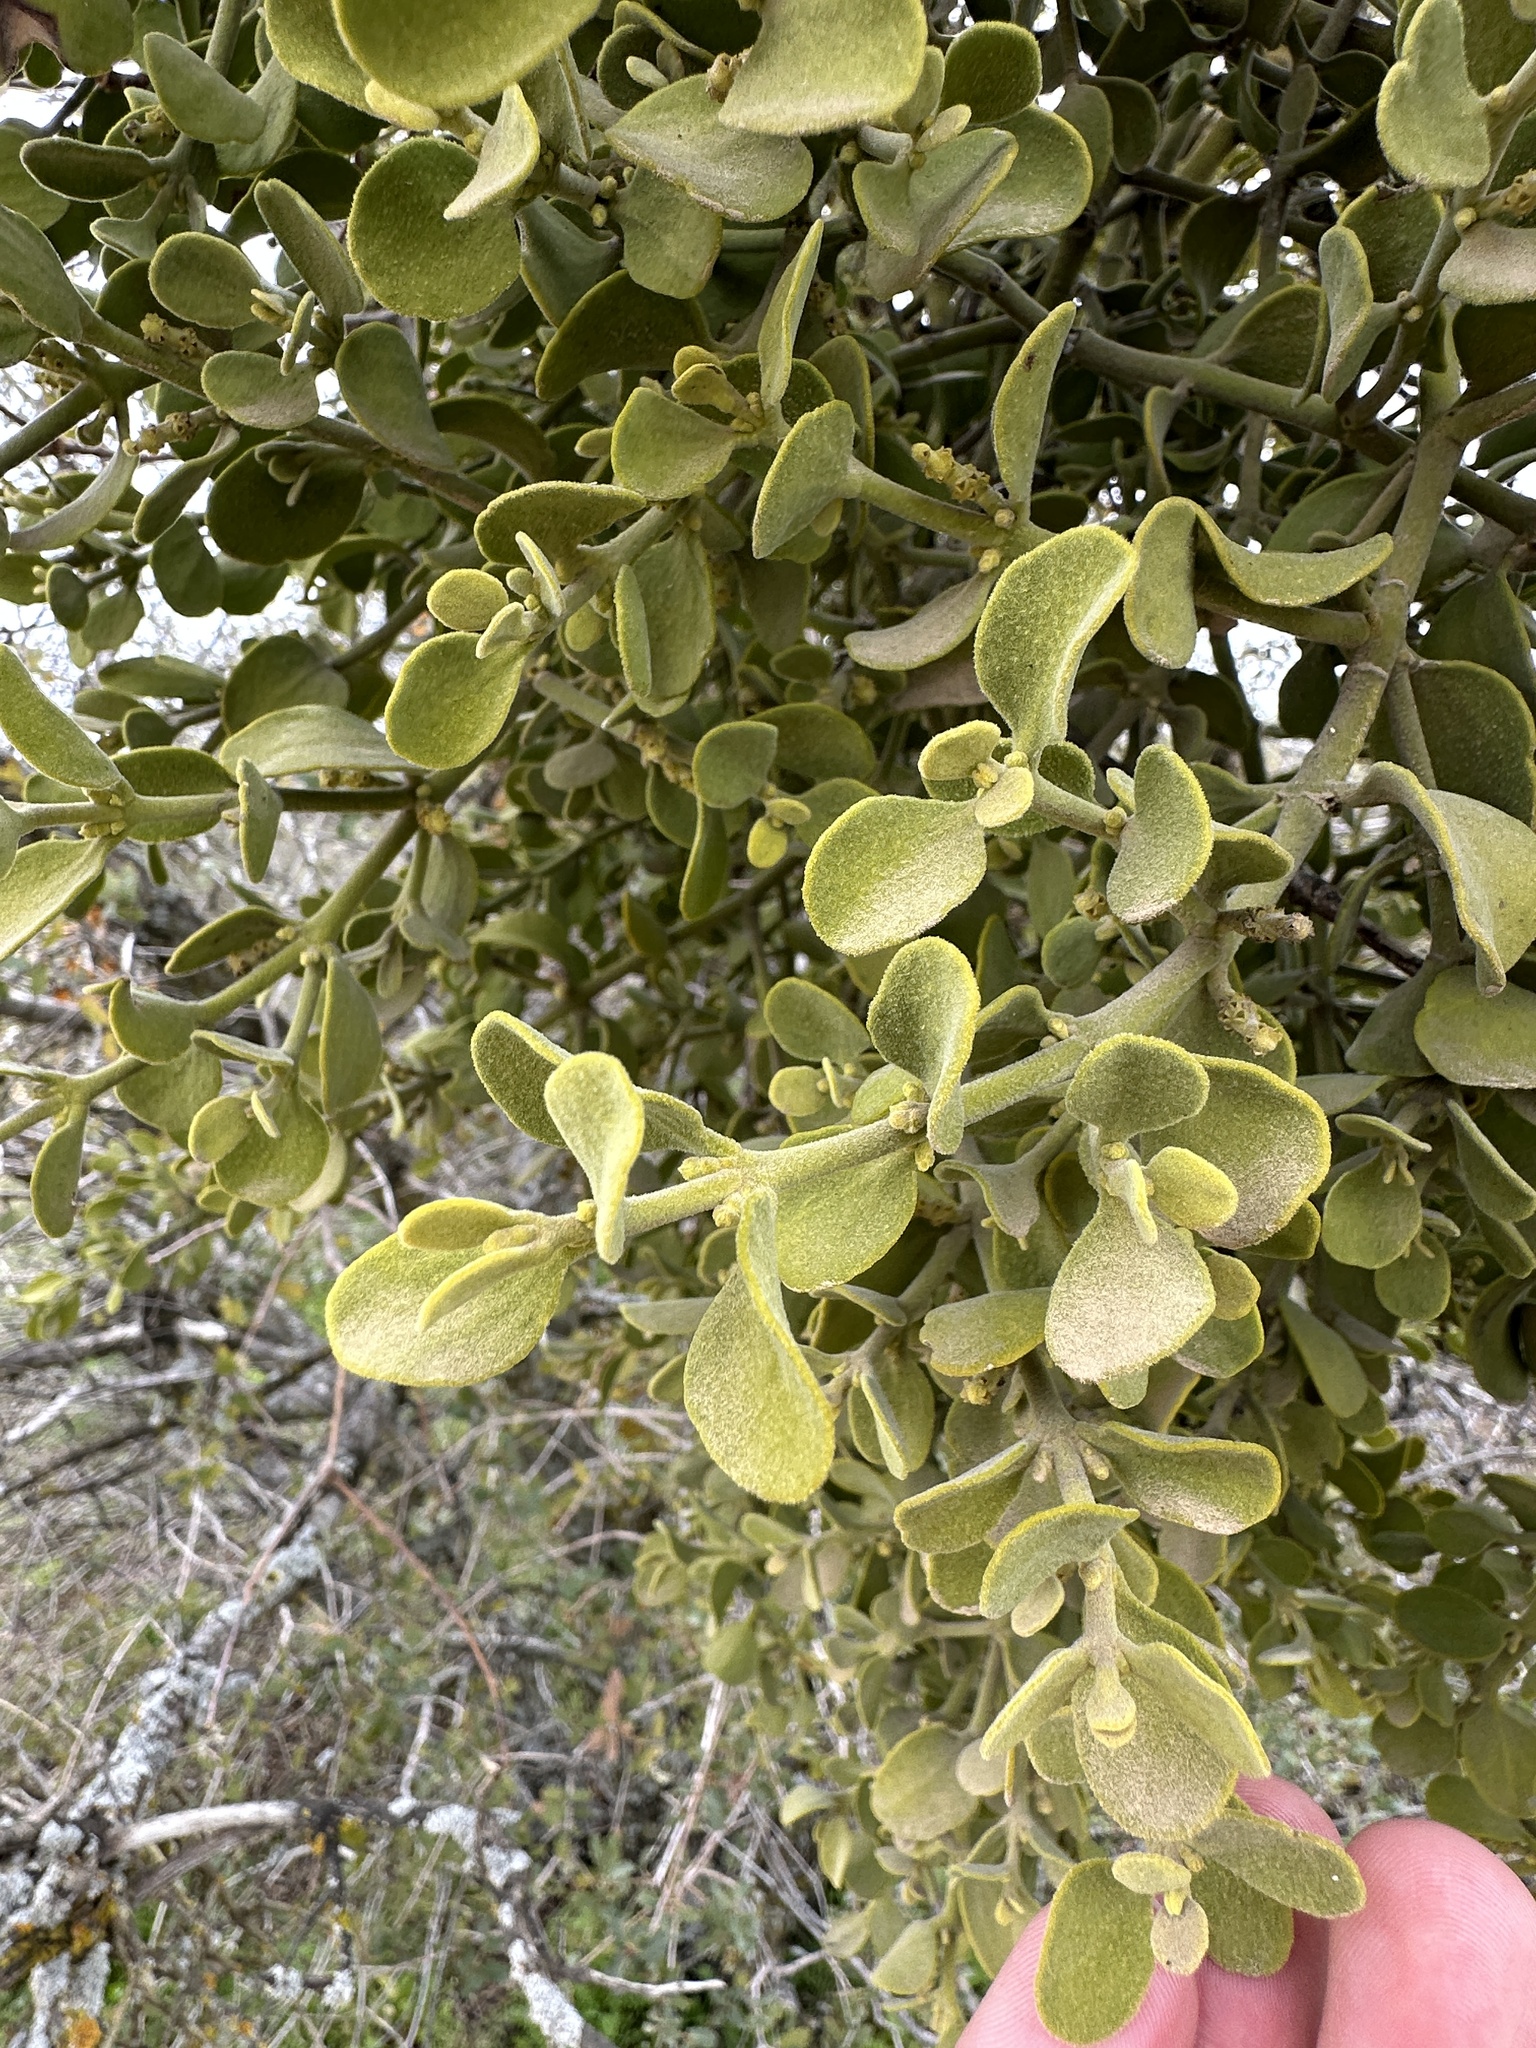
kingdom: Plantae
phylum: Tracheophyta
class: Magnoliopsida
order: Santalales
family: Viscaceae
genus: Phoradendron
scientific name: Phoradendron leucarpum
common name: Pacific mistletoe
